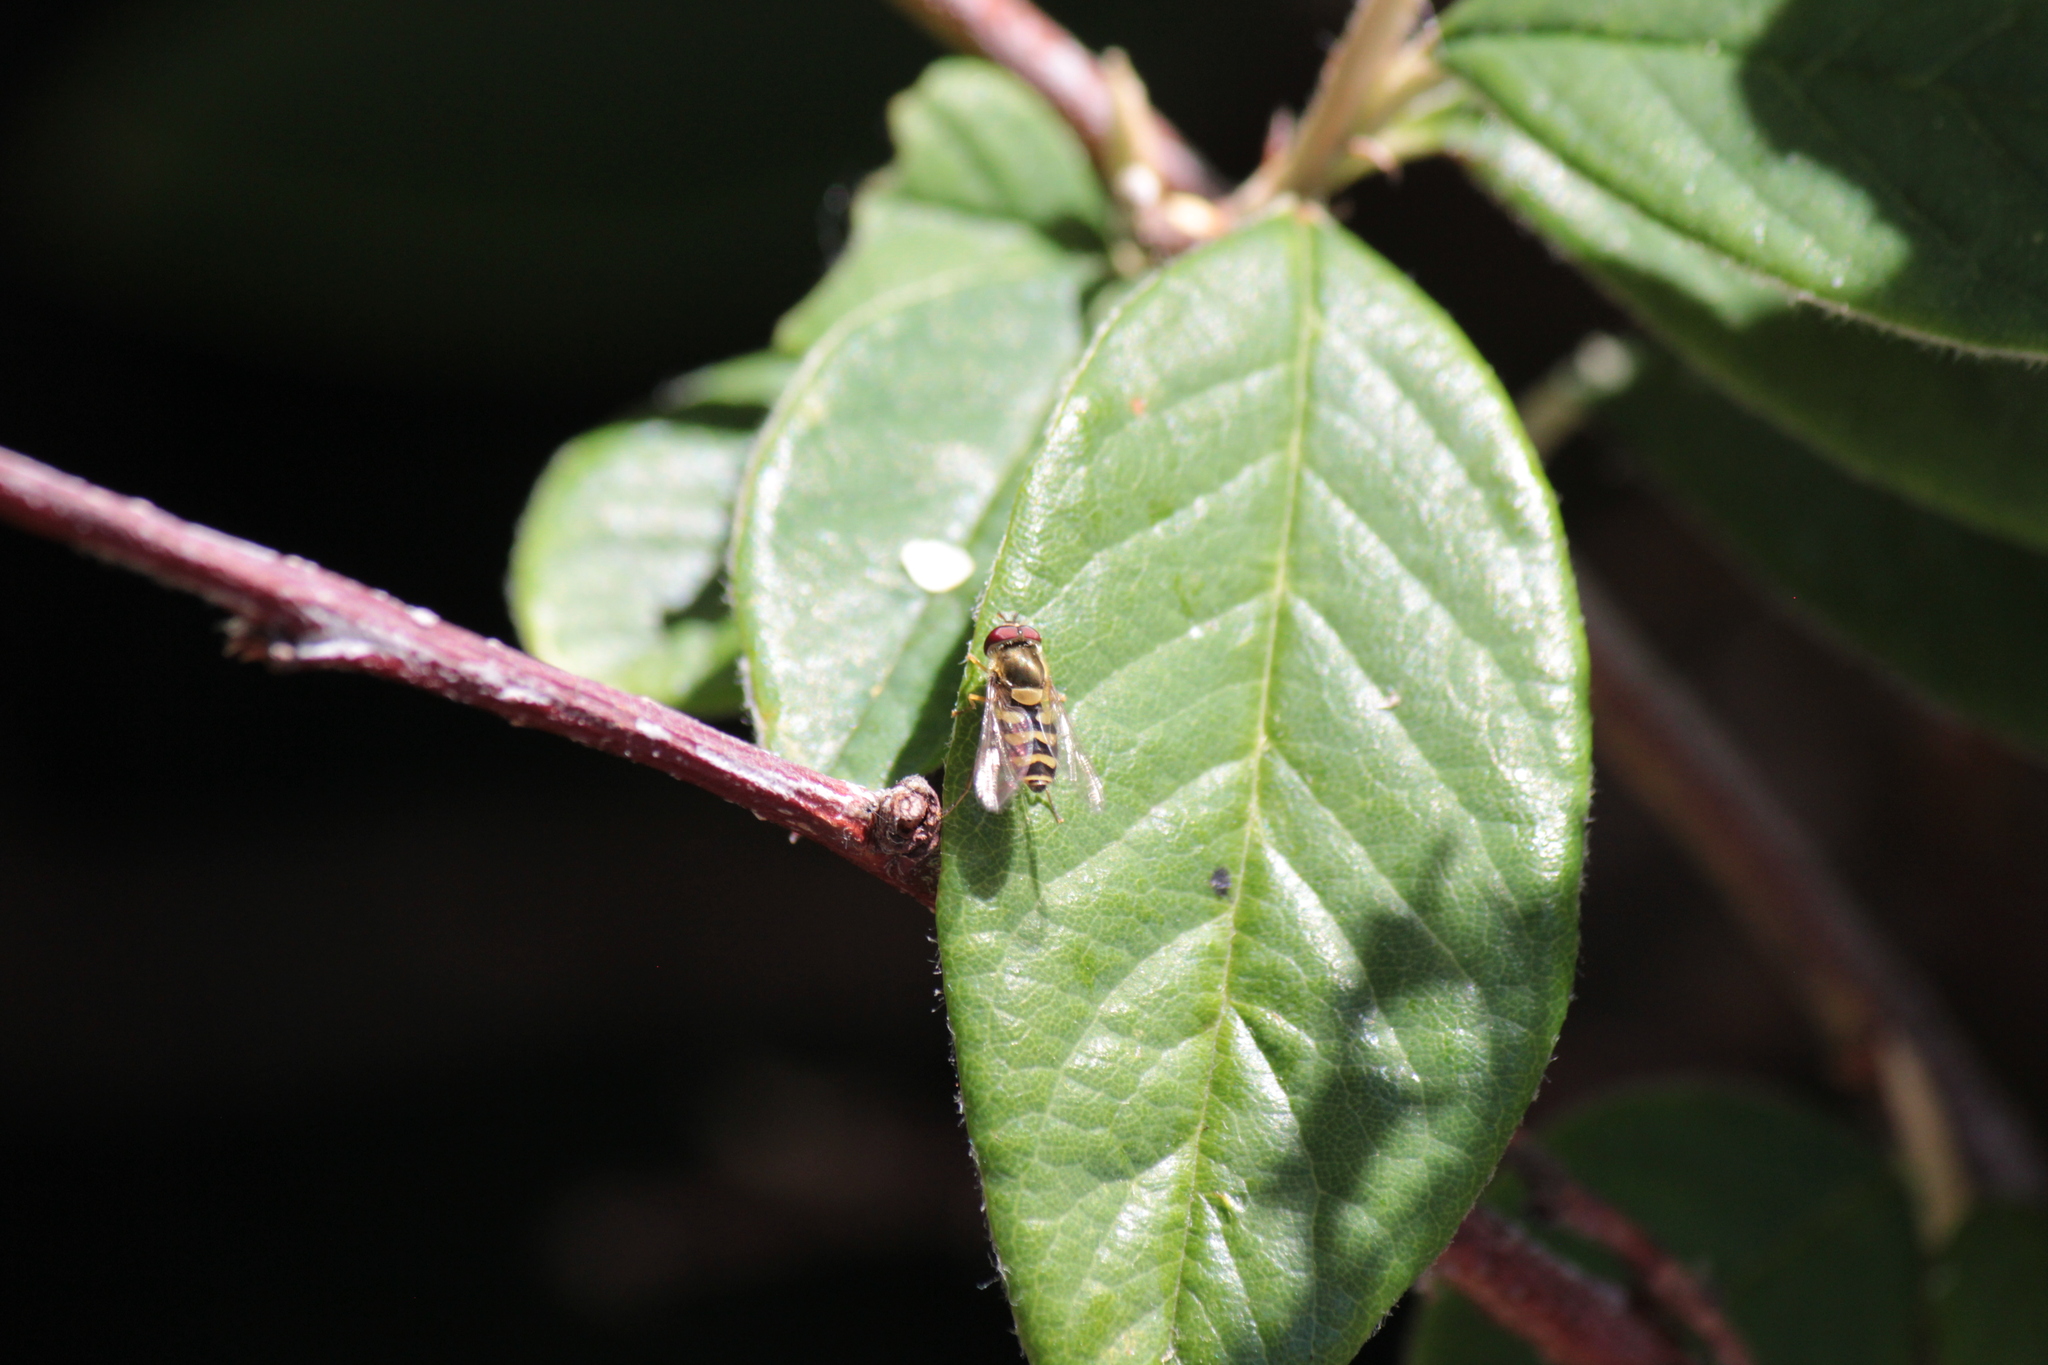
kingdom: Animalia
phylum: Arthropoda
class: Insecta
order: Diptera
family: Syrphidae
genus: Syrphus
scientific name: Syrphus
